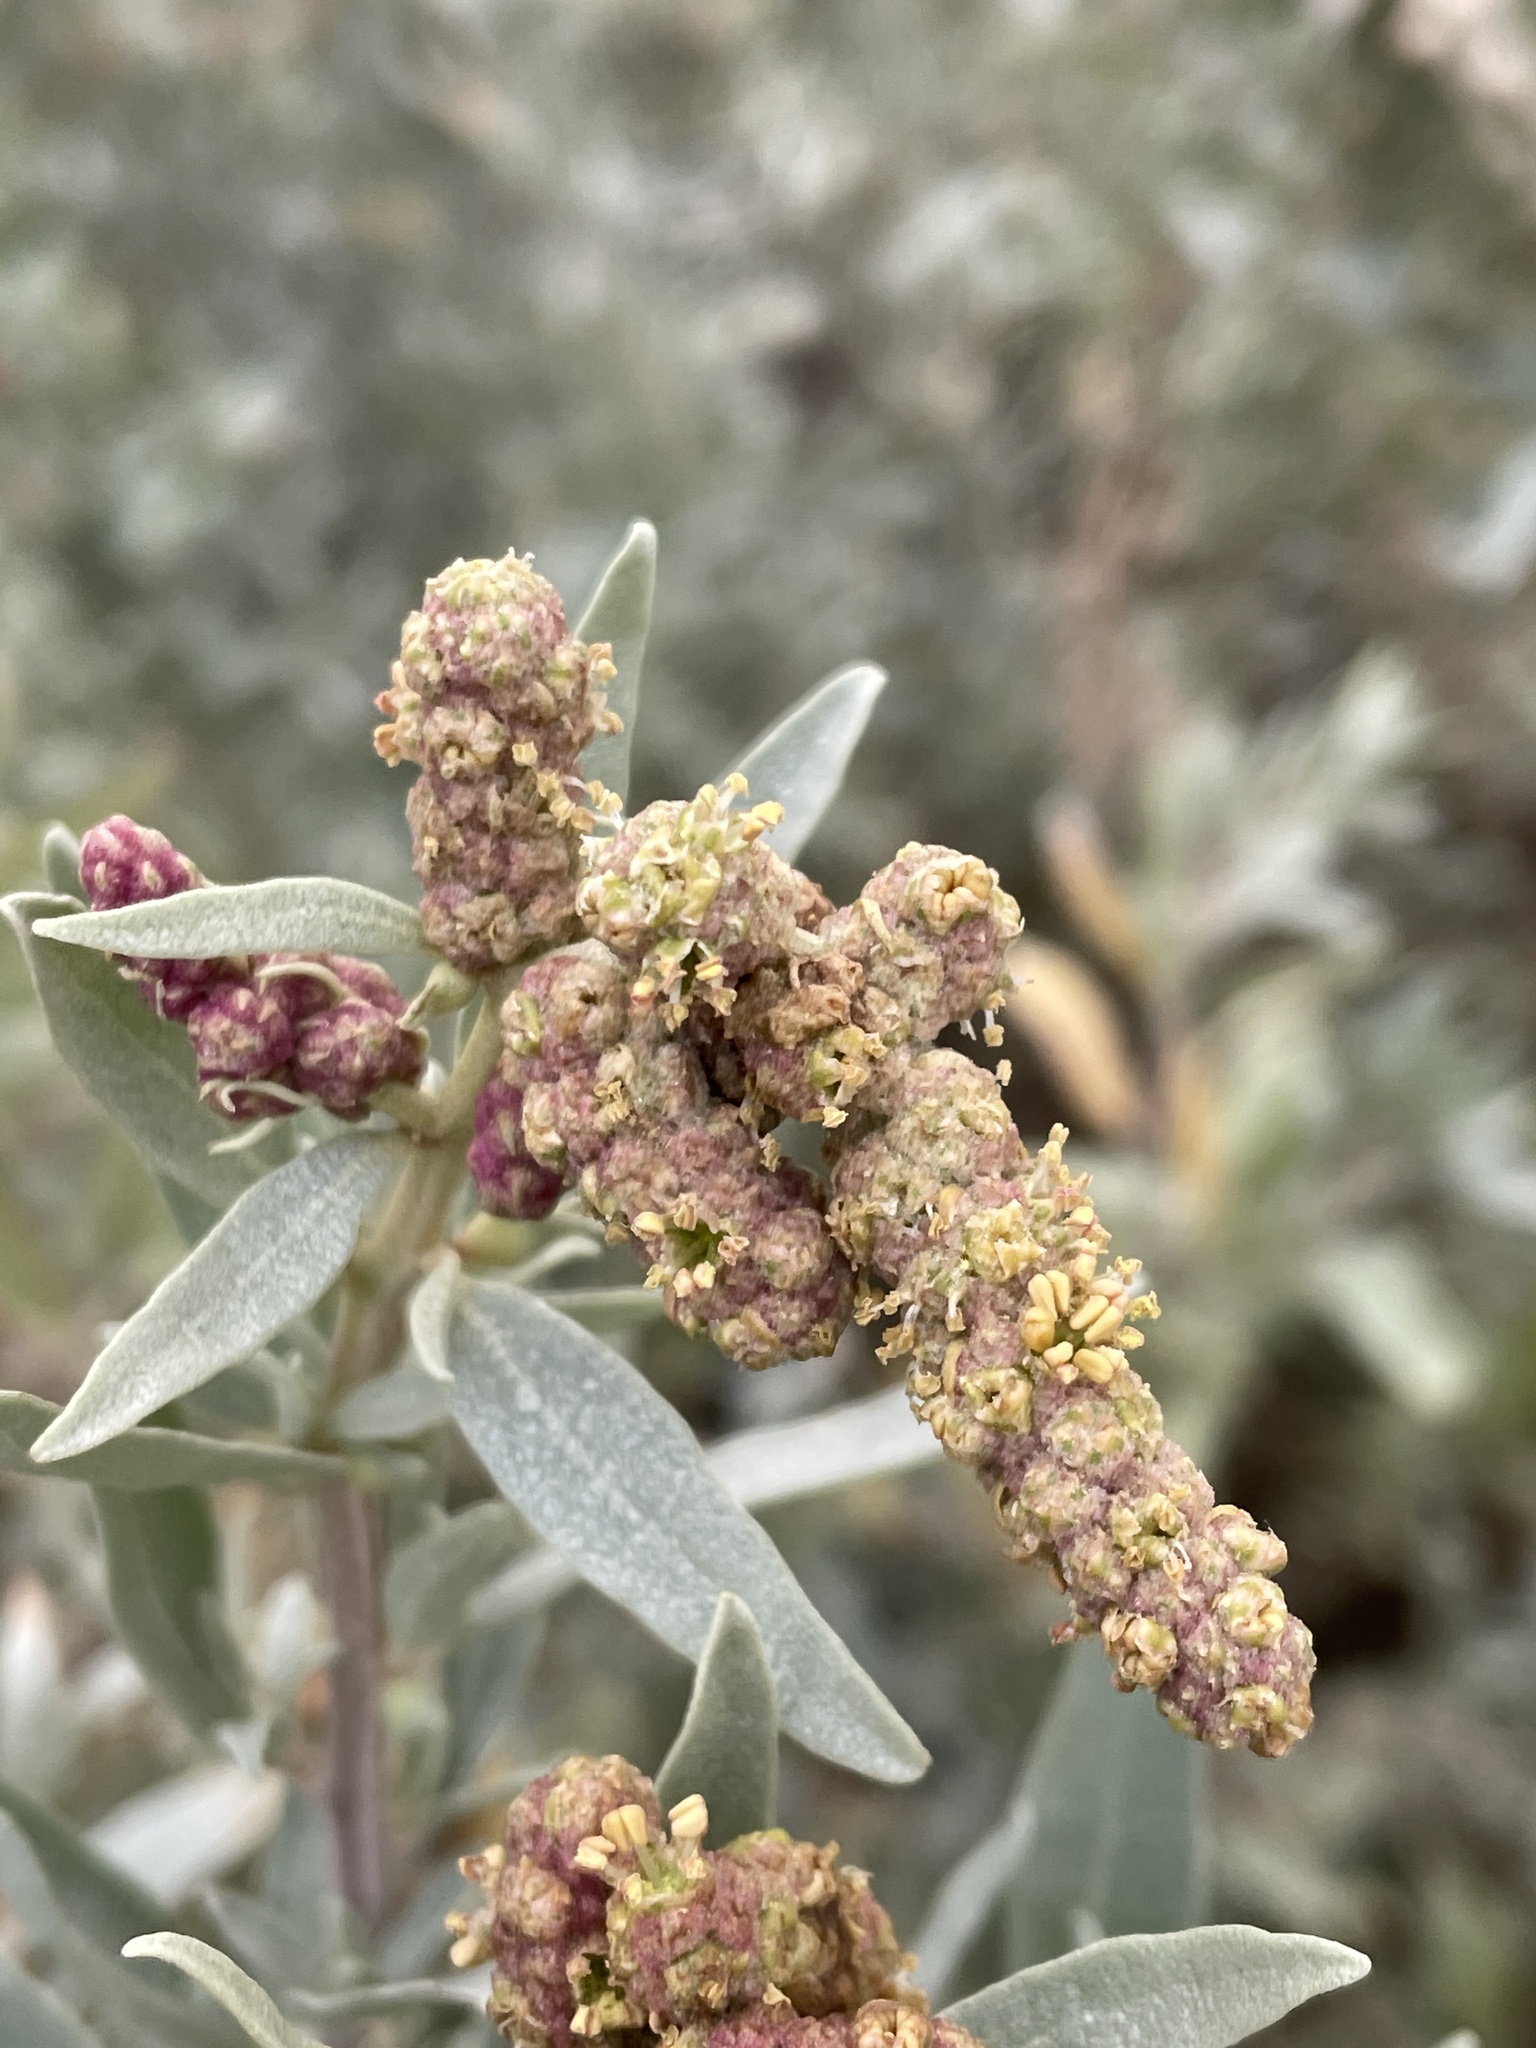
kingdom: Plantae
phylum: Tracheophyta
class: Magnoliopsida
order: Caryophyllales
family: Amaranthaceae
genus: Atriplex
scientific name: Atriplex cinerea
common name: Grey saltbush
